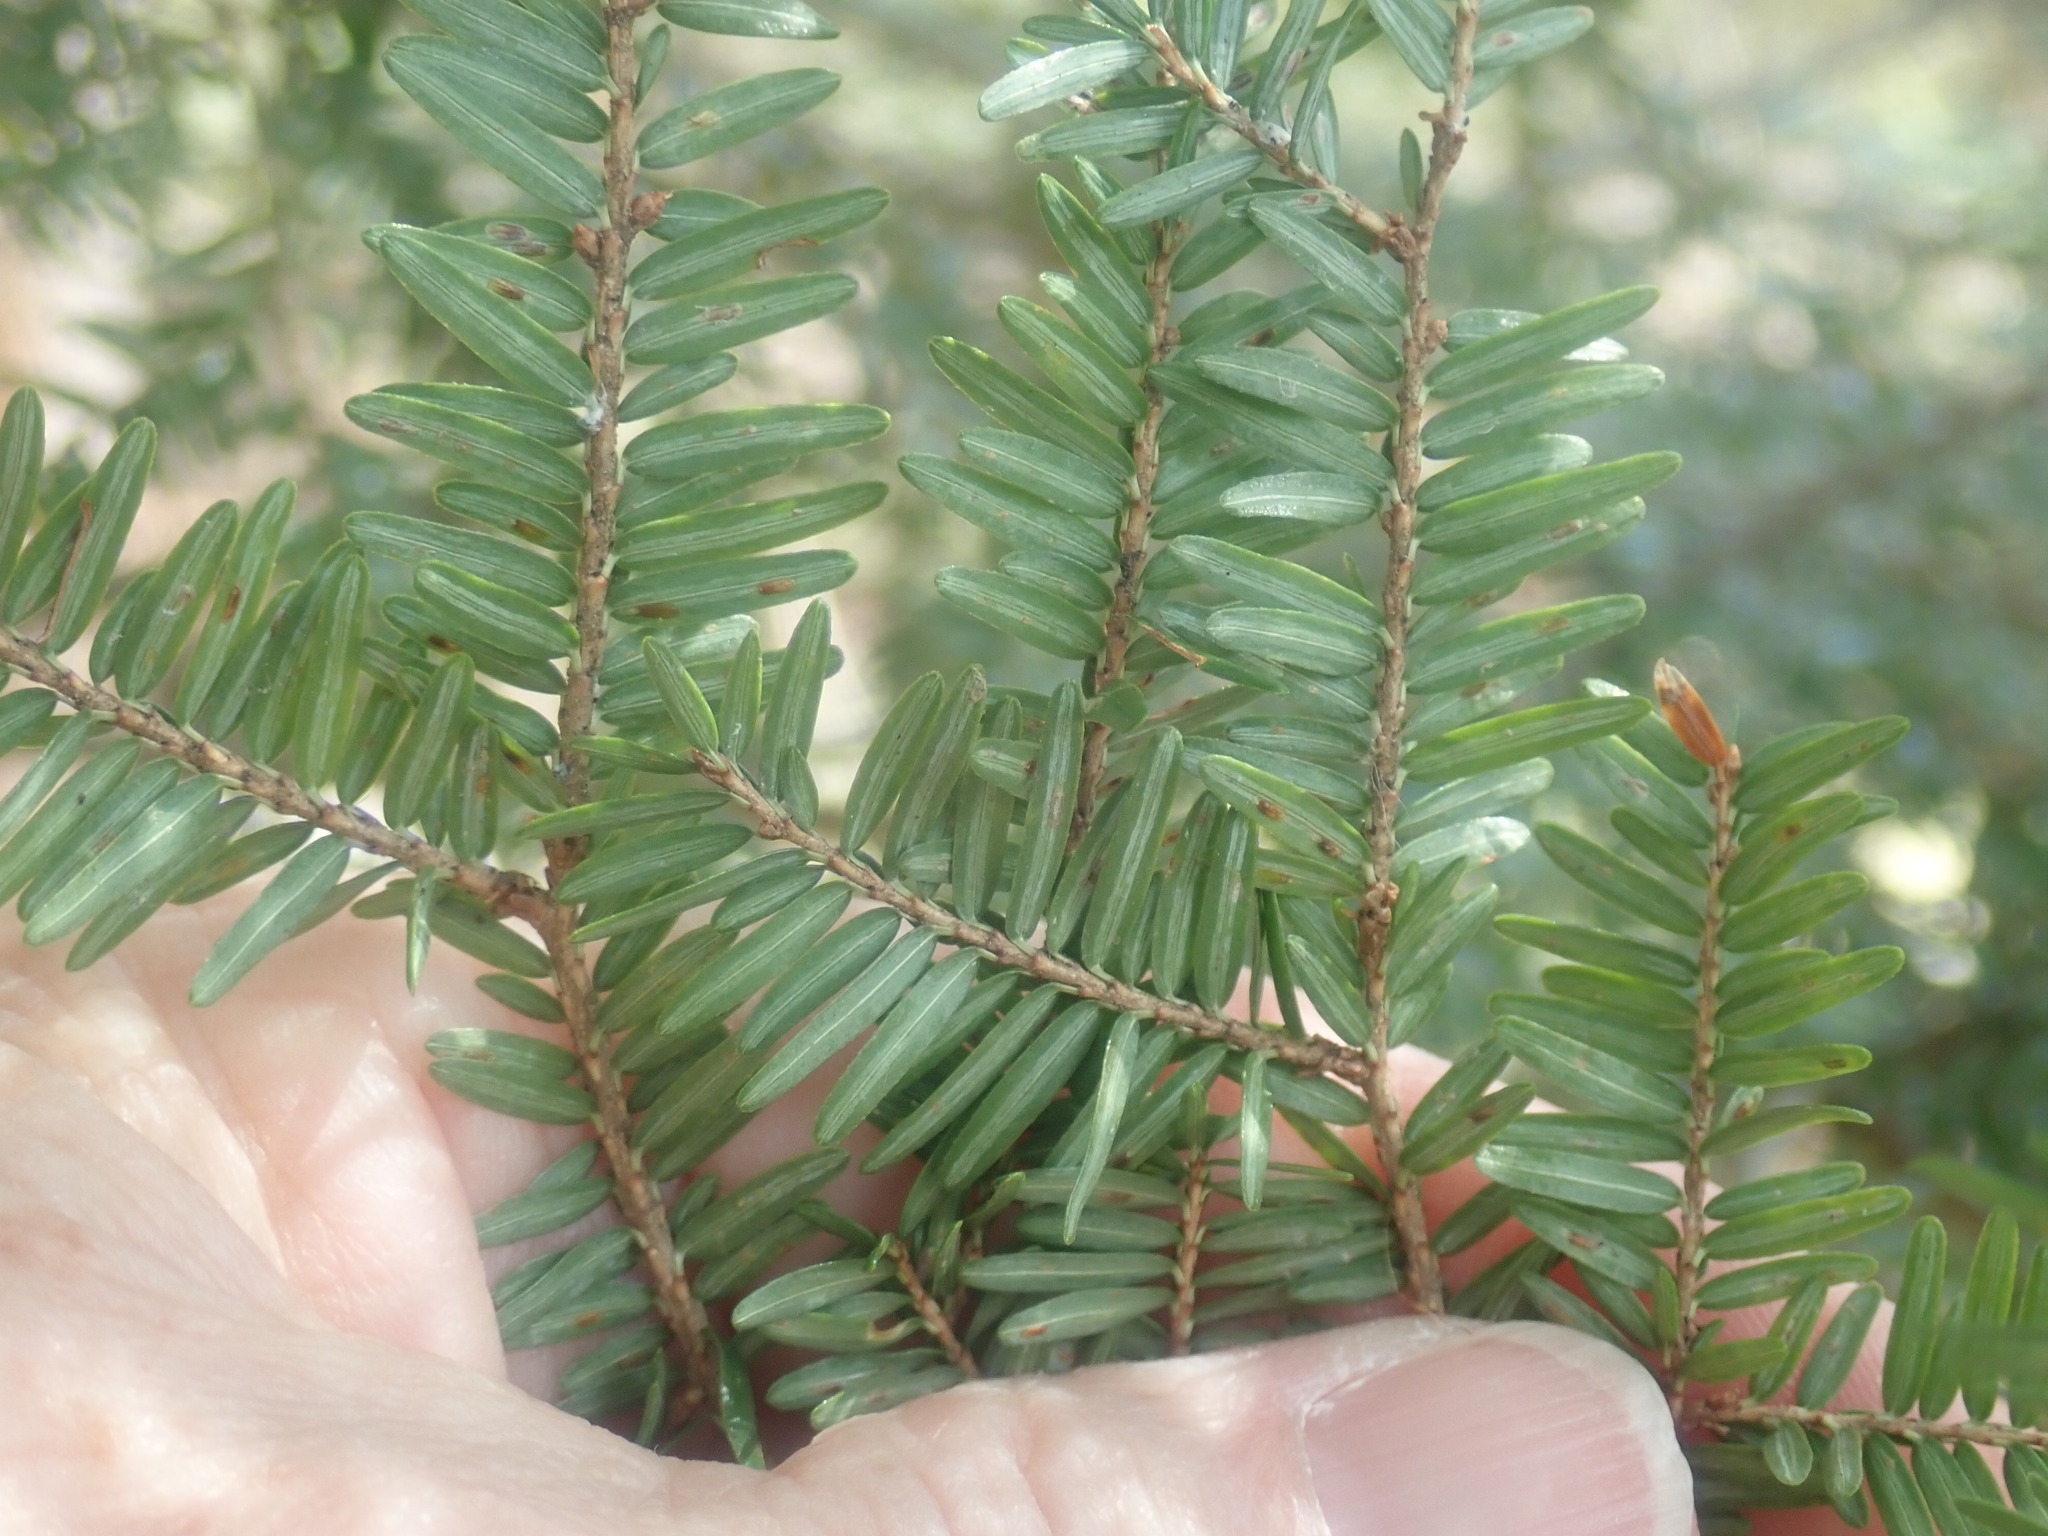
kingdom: Plantae
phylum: Tracheophyta
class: Pinopsida
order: Pinales
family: Pinaceae
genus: Tsuga
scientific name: Tsuga canadensis
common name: Eastern hemlock
